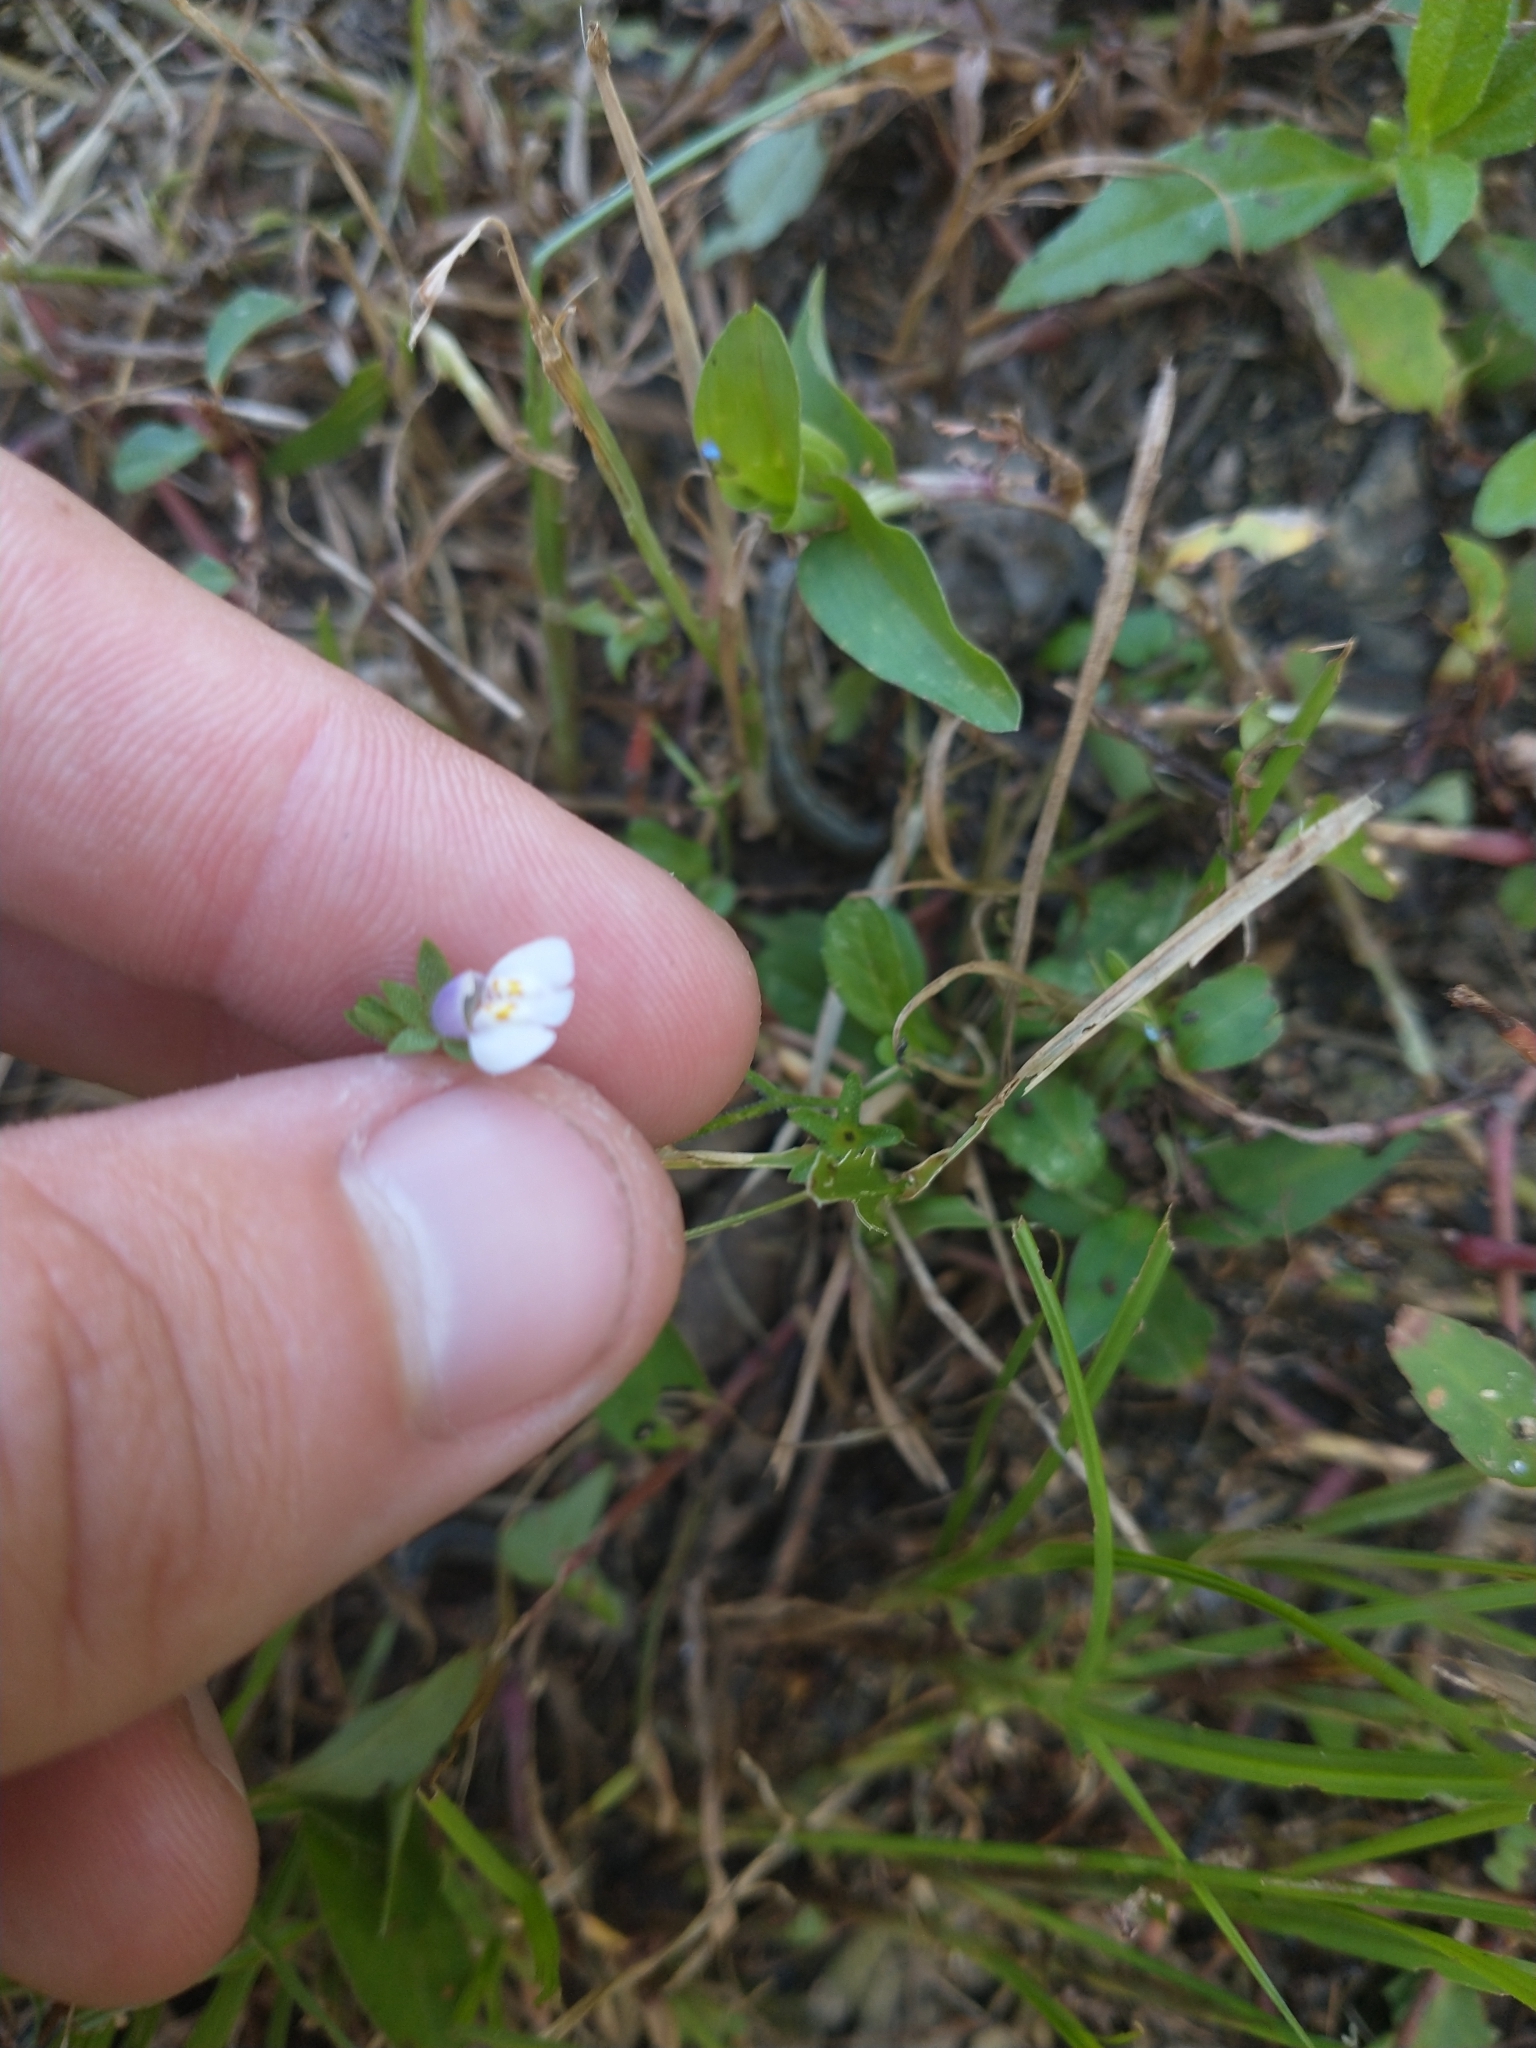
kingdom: Plantae
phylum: Tracheophyta
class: Magnoliopsida
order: Lamiales
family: Mazaceae
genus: Mazus
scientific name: Mazus pumilus
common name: Japanese mazus
